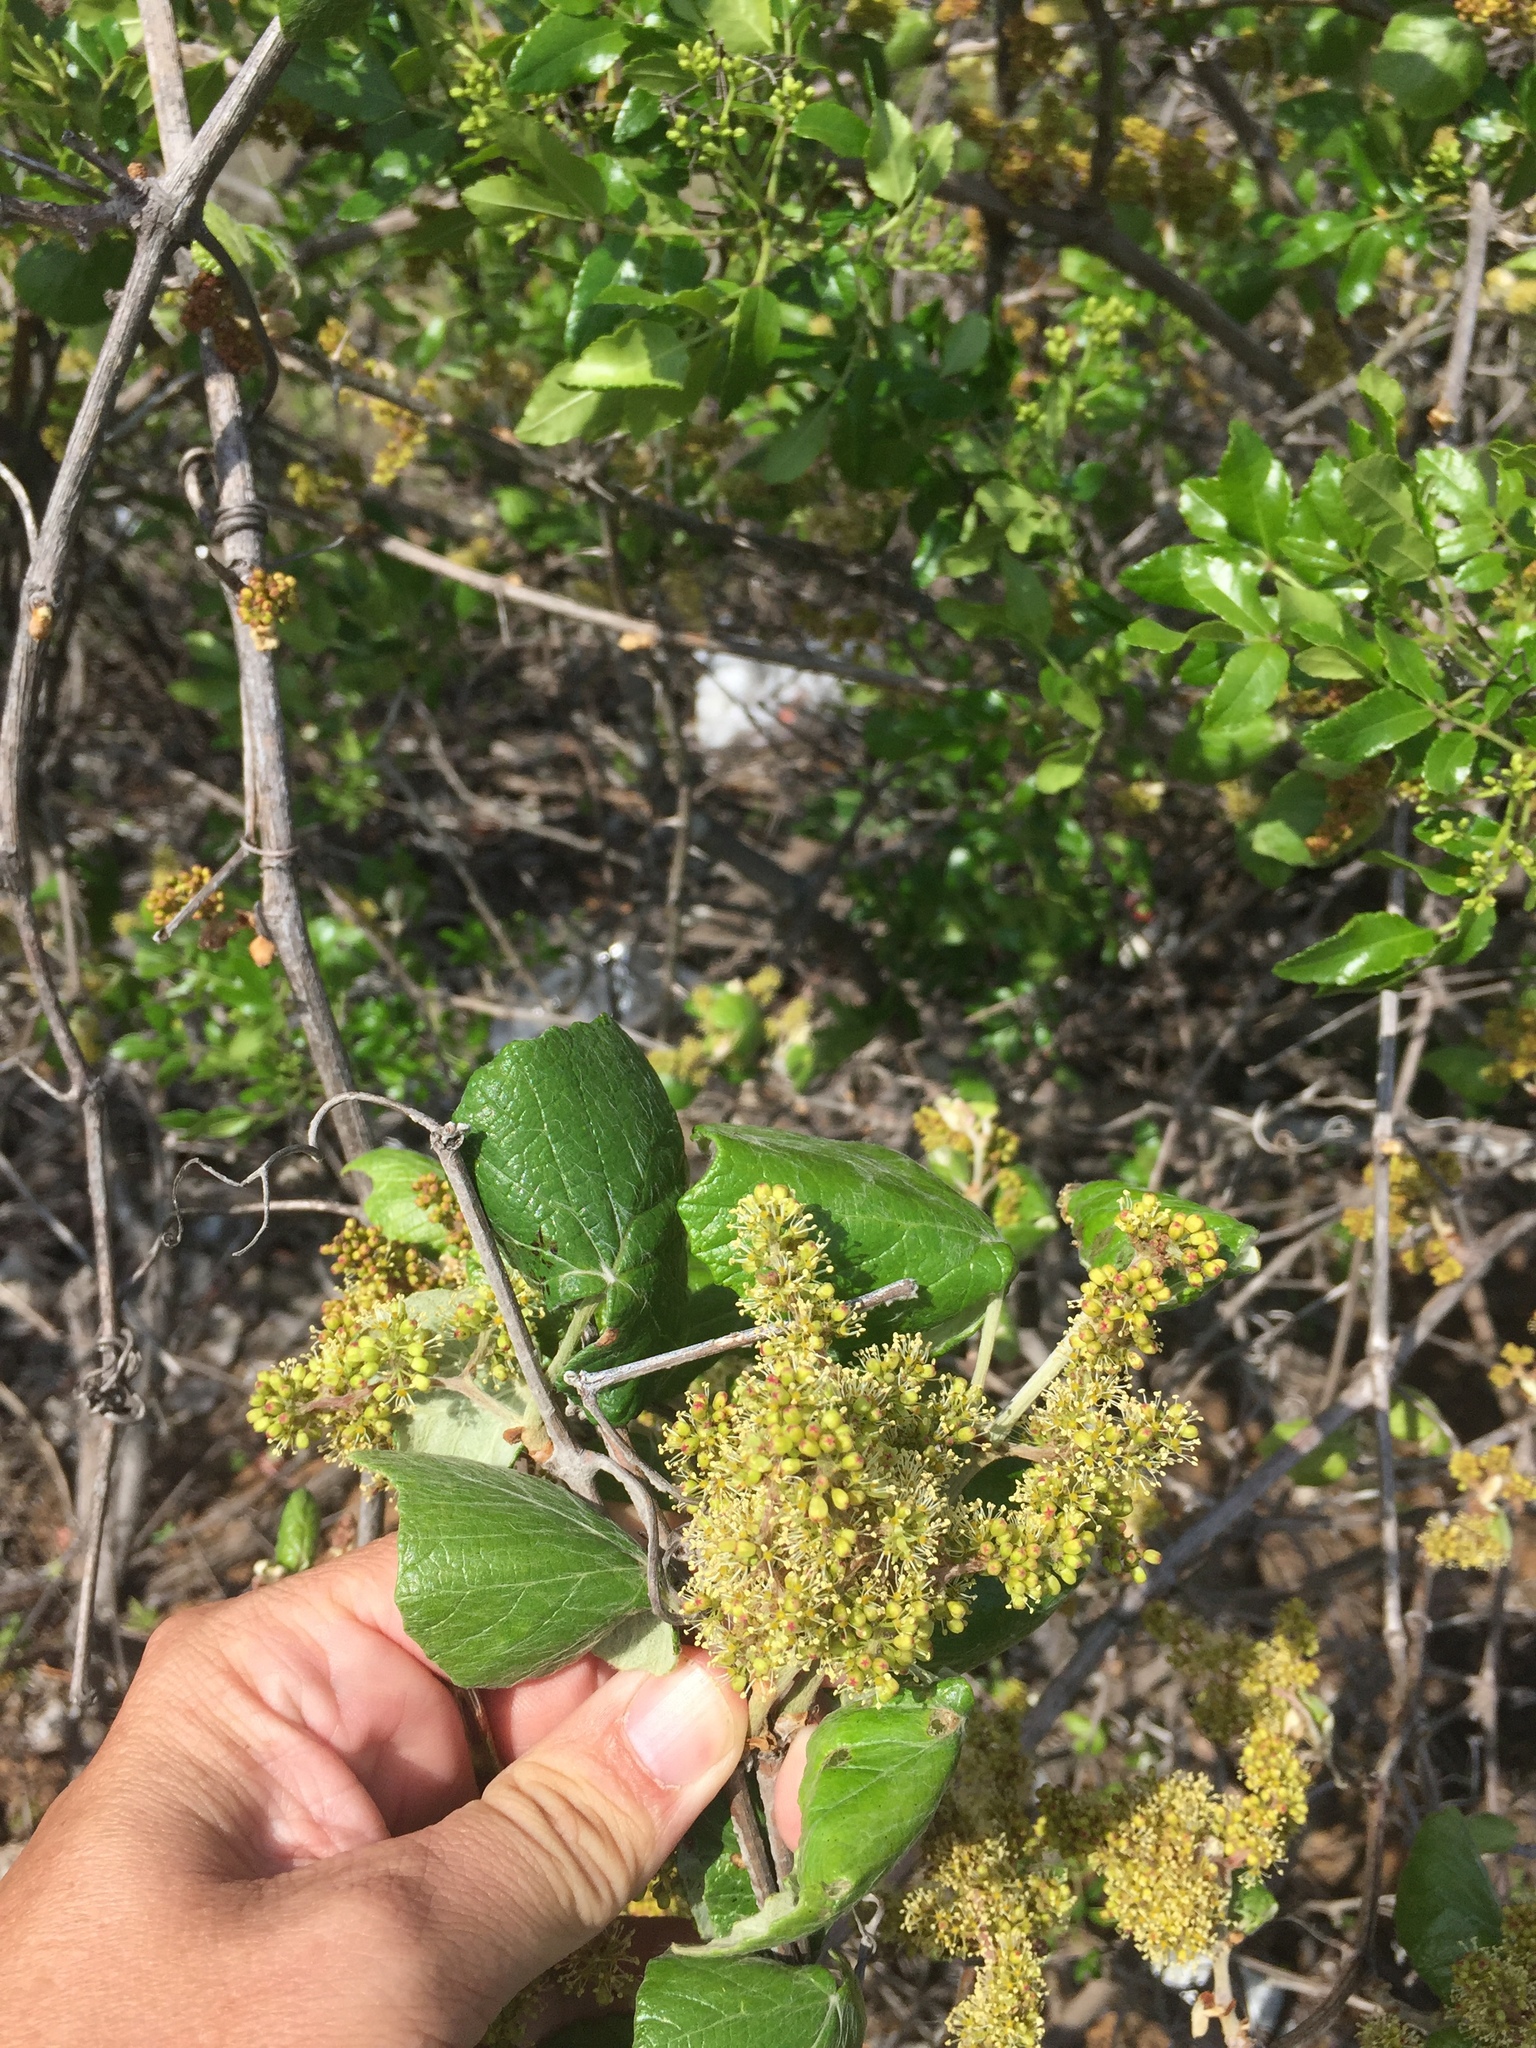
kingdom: Plantae
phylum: Tracheophyta
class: Magnoliopsida
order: Vitales
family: Vitaceae
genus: Vitis
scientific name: Vitis mustangensis
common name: Mustang grape
